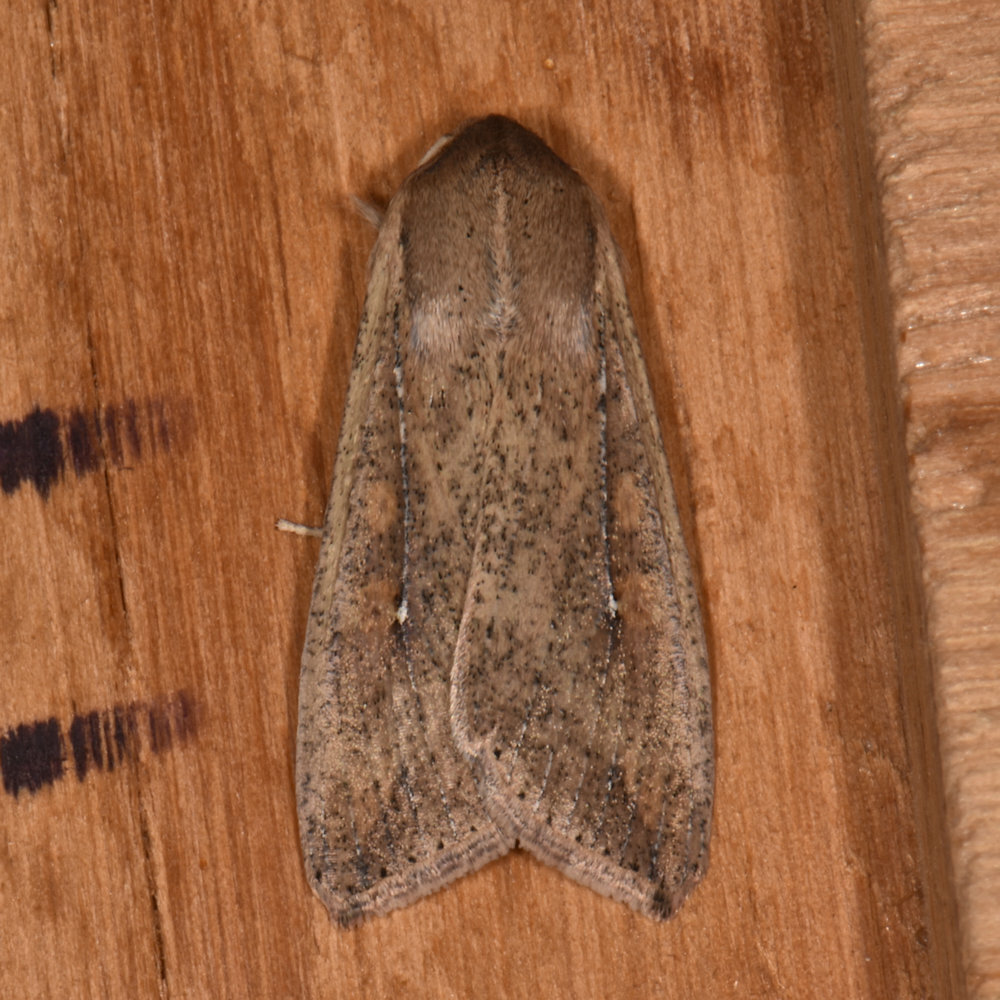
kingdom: Animalia
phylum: Arthropoda
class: Insecta
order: Lepidoptera
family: Noctuidae
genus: Mythimna
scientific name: Mythimna unipuncta
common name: White-speck
